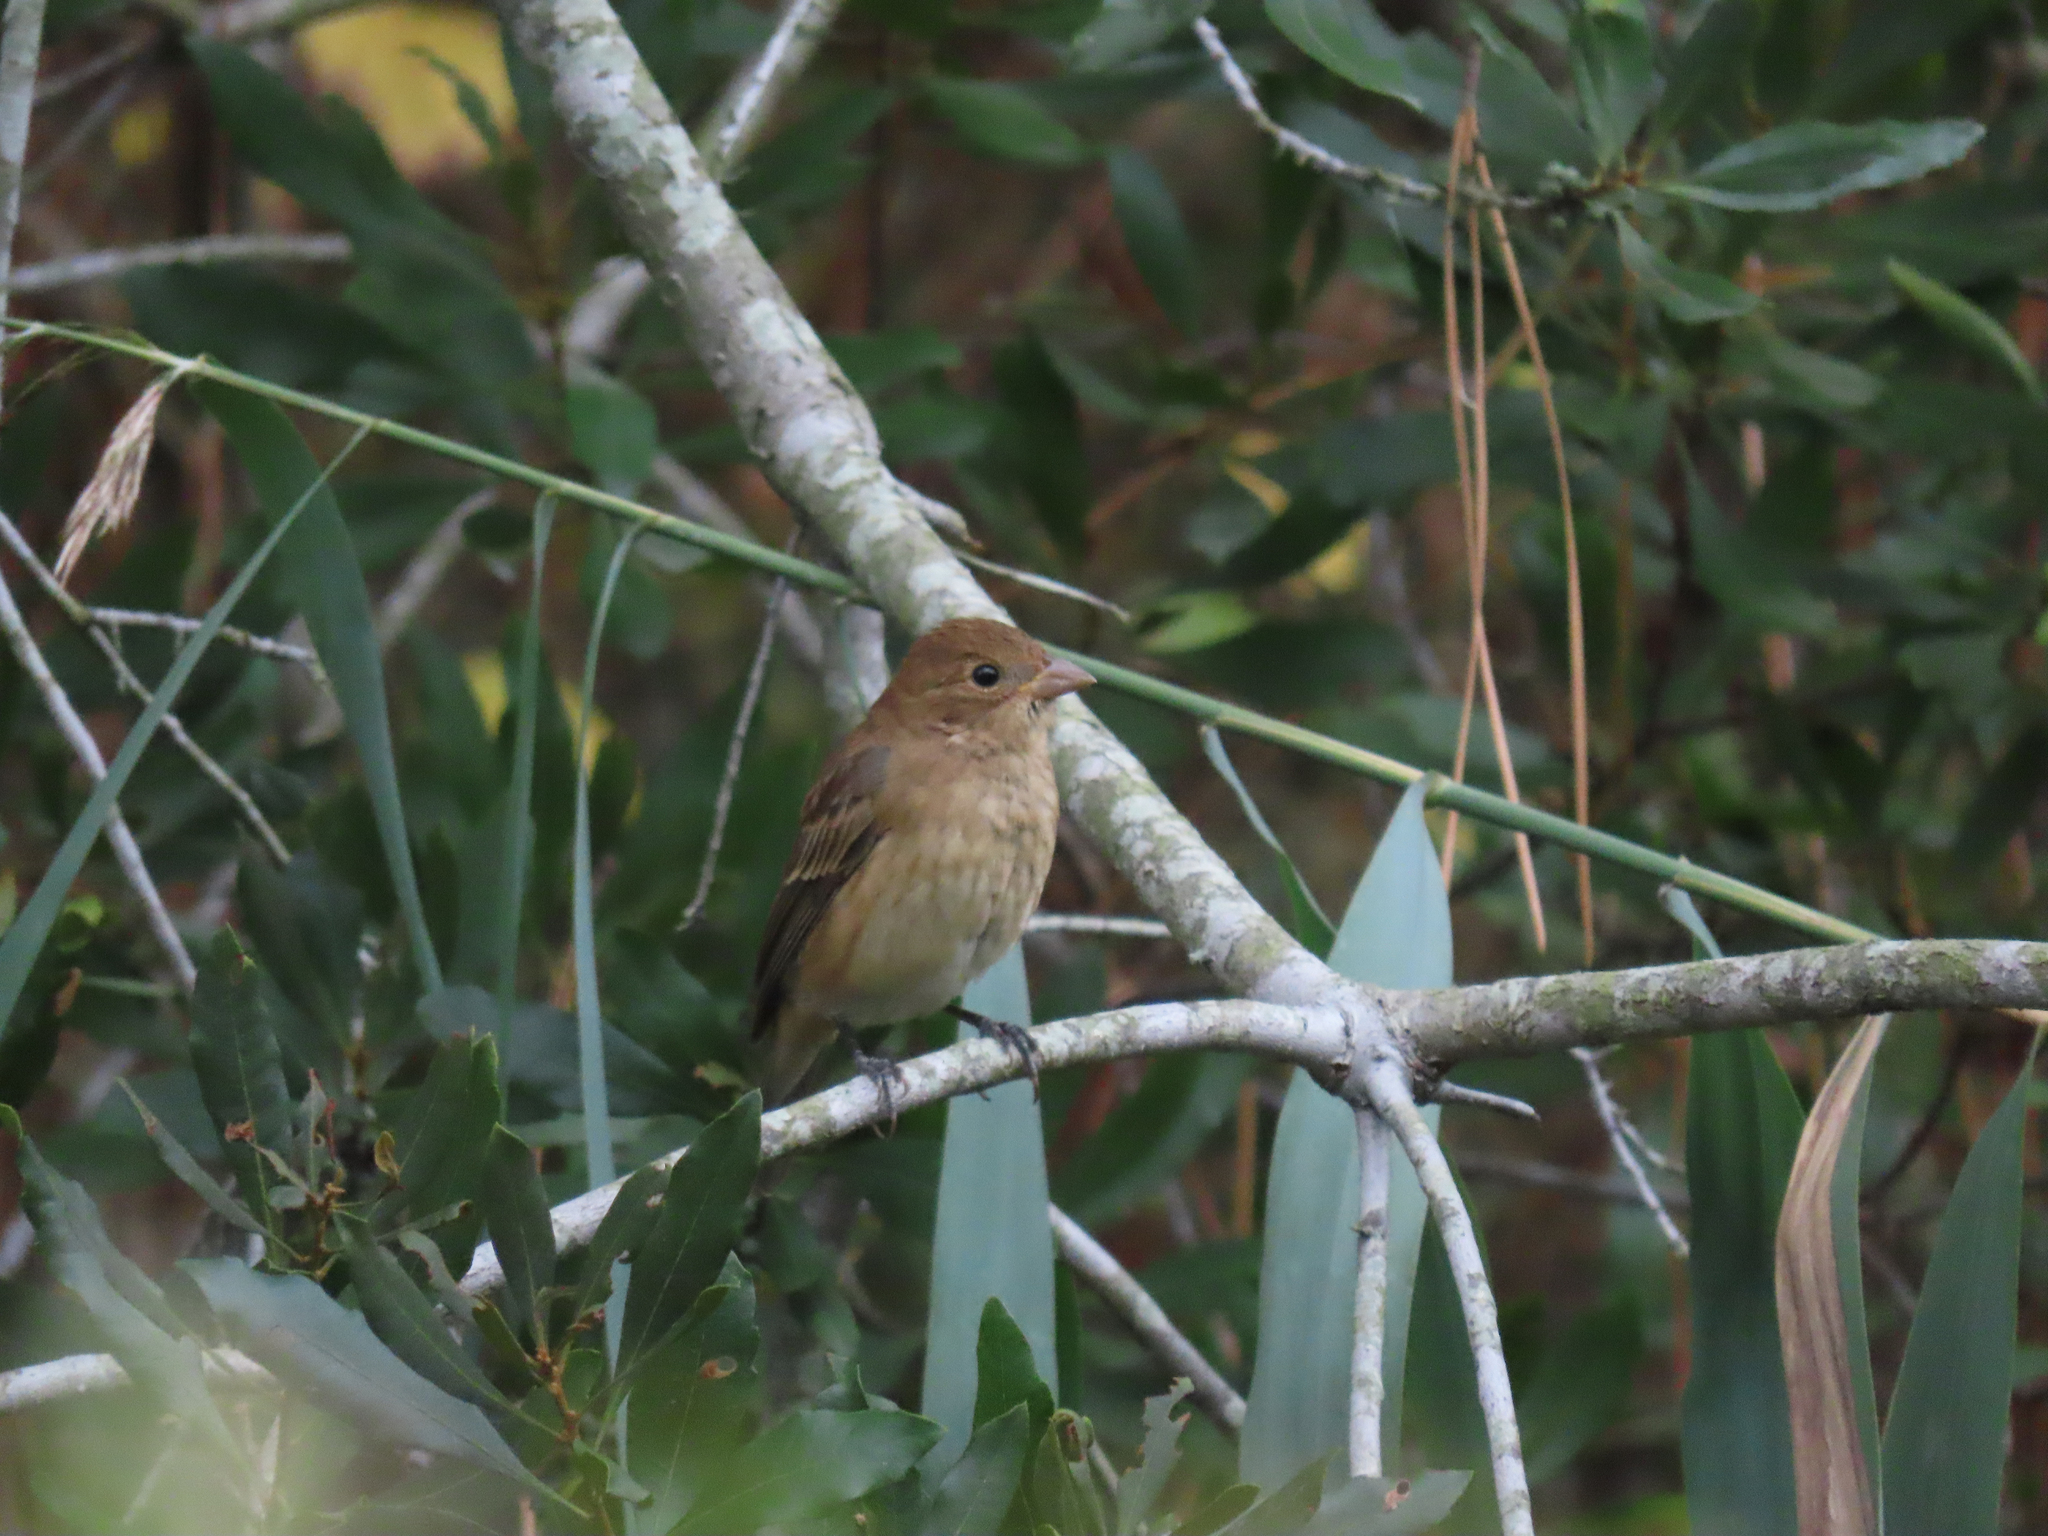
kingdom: Animalia
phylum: Chordata
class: Aves
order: Passeriformes
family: Cardinalidae
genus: Passerina
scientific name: Passerina cyanea
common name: Indigo bunting
